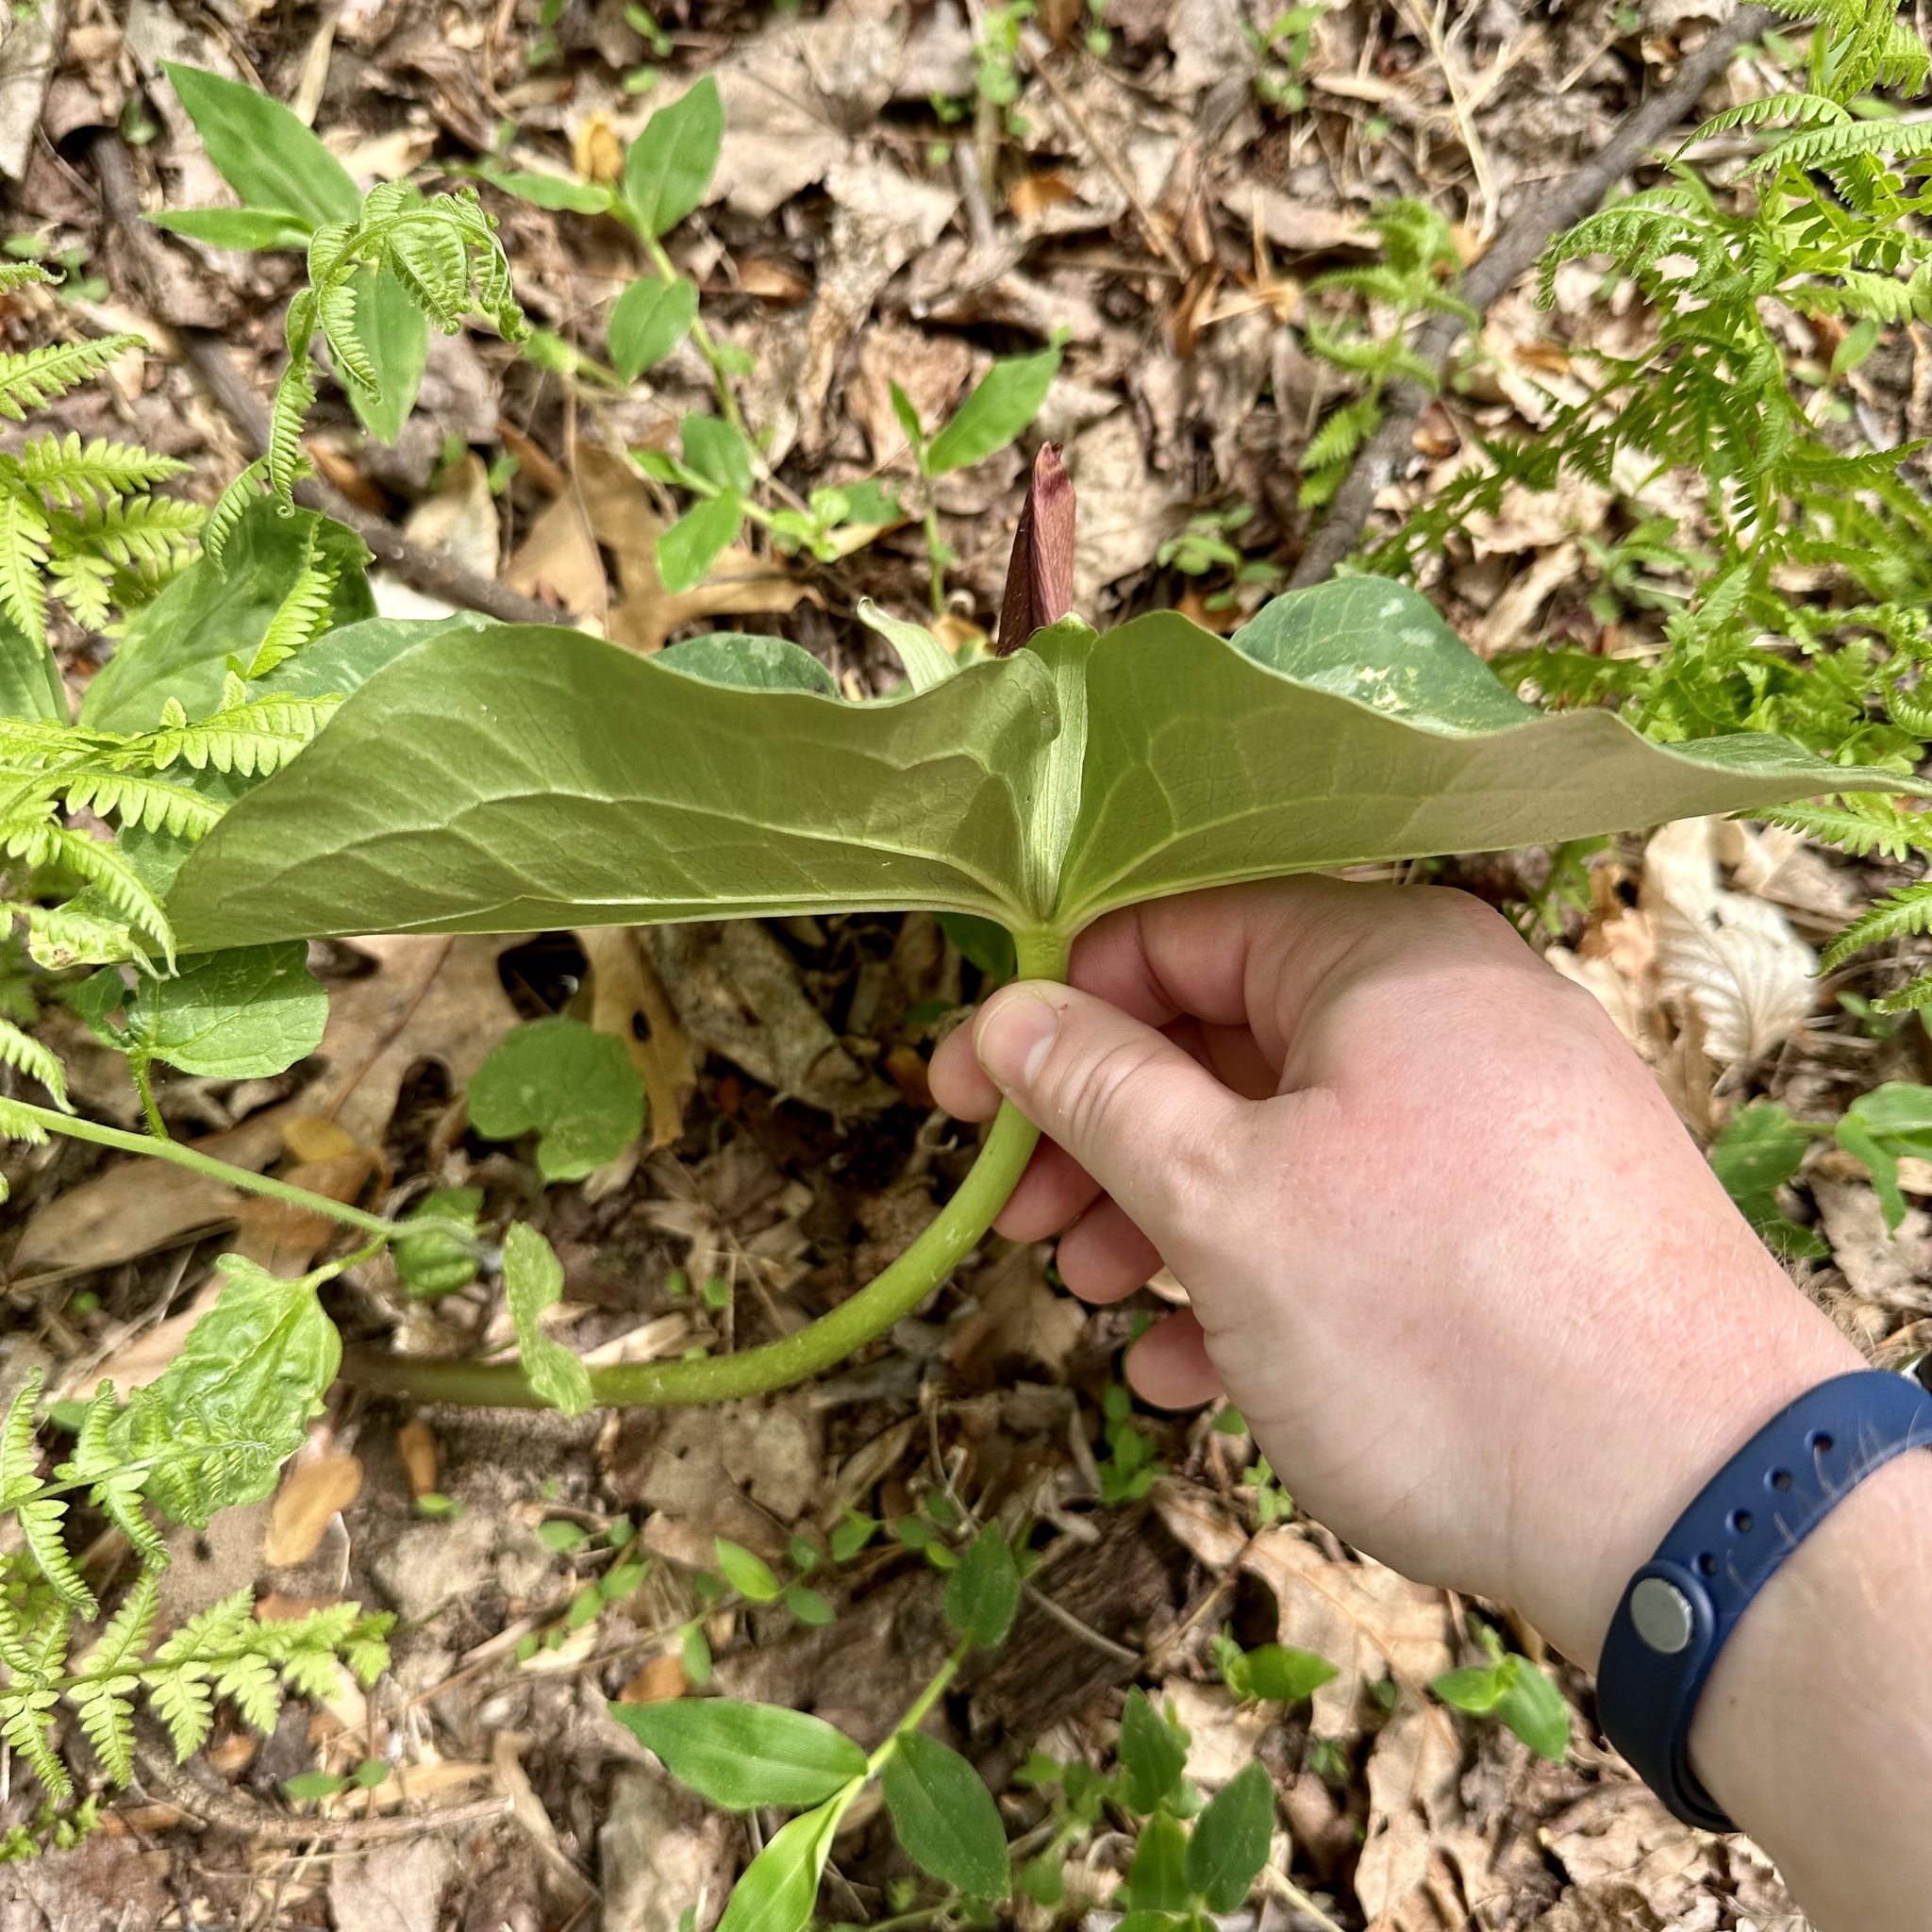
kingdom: Plantae
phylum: Tracheophyta
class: Liliopsida
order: Liliales
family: Melanthiaceae
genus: Trillium
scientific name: Trillium cuneatum
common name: Cuneate trillium
